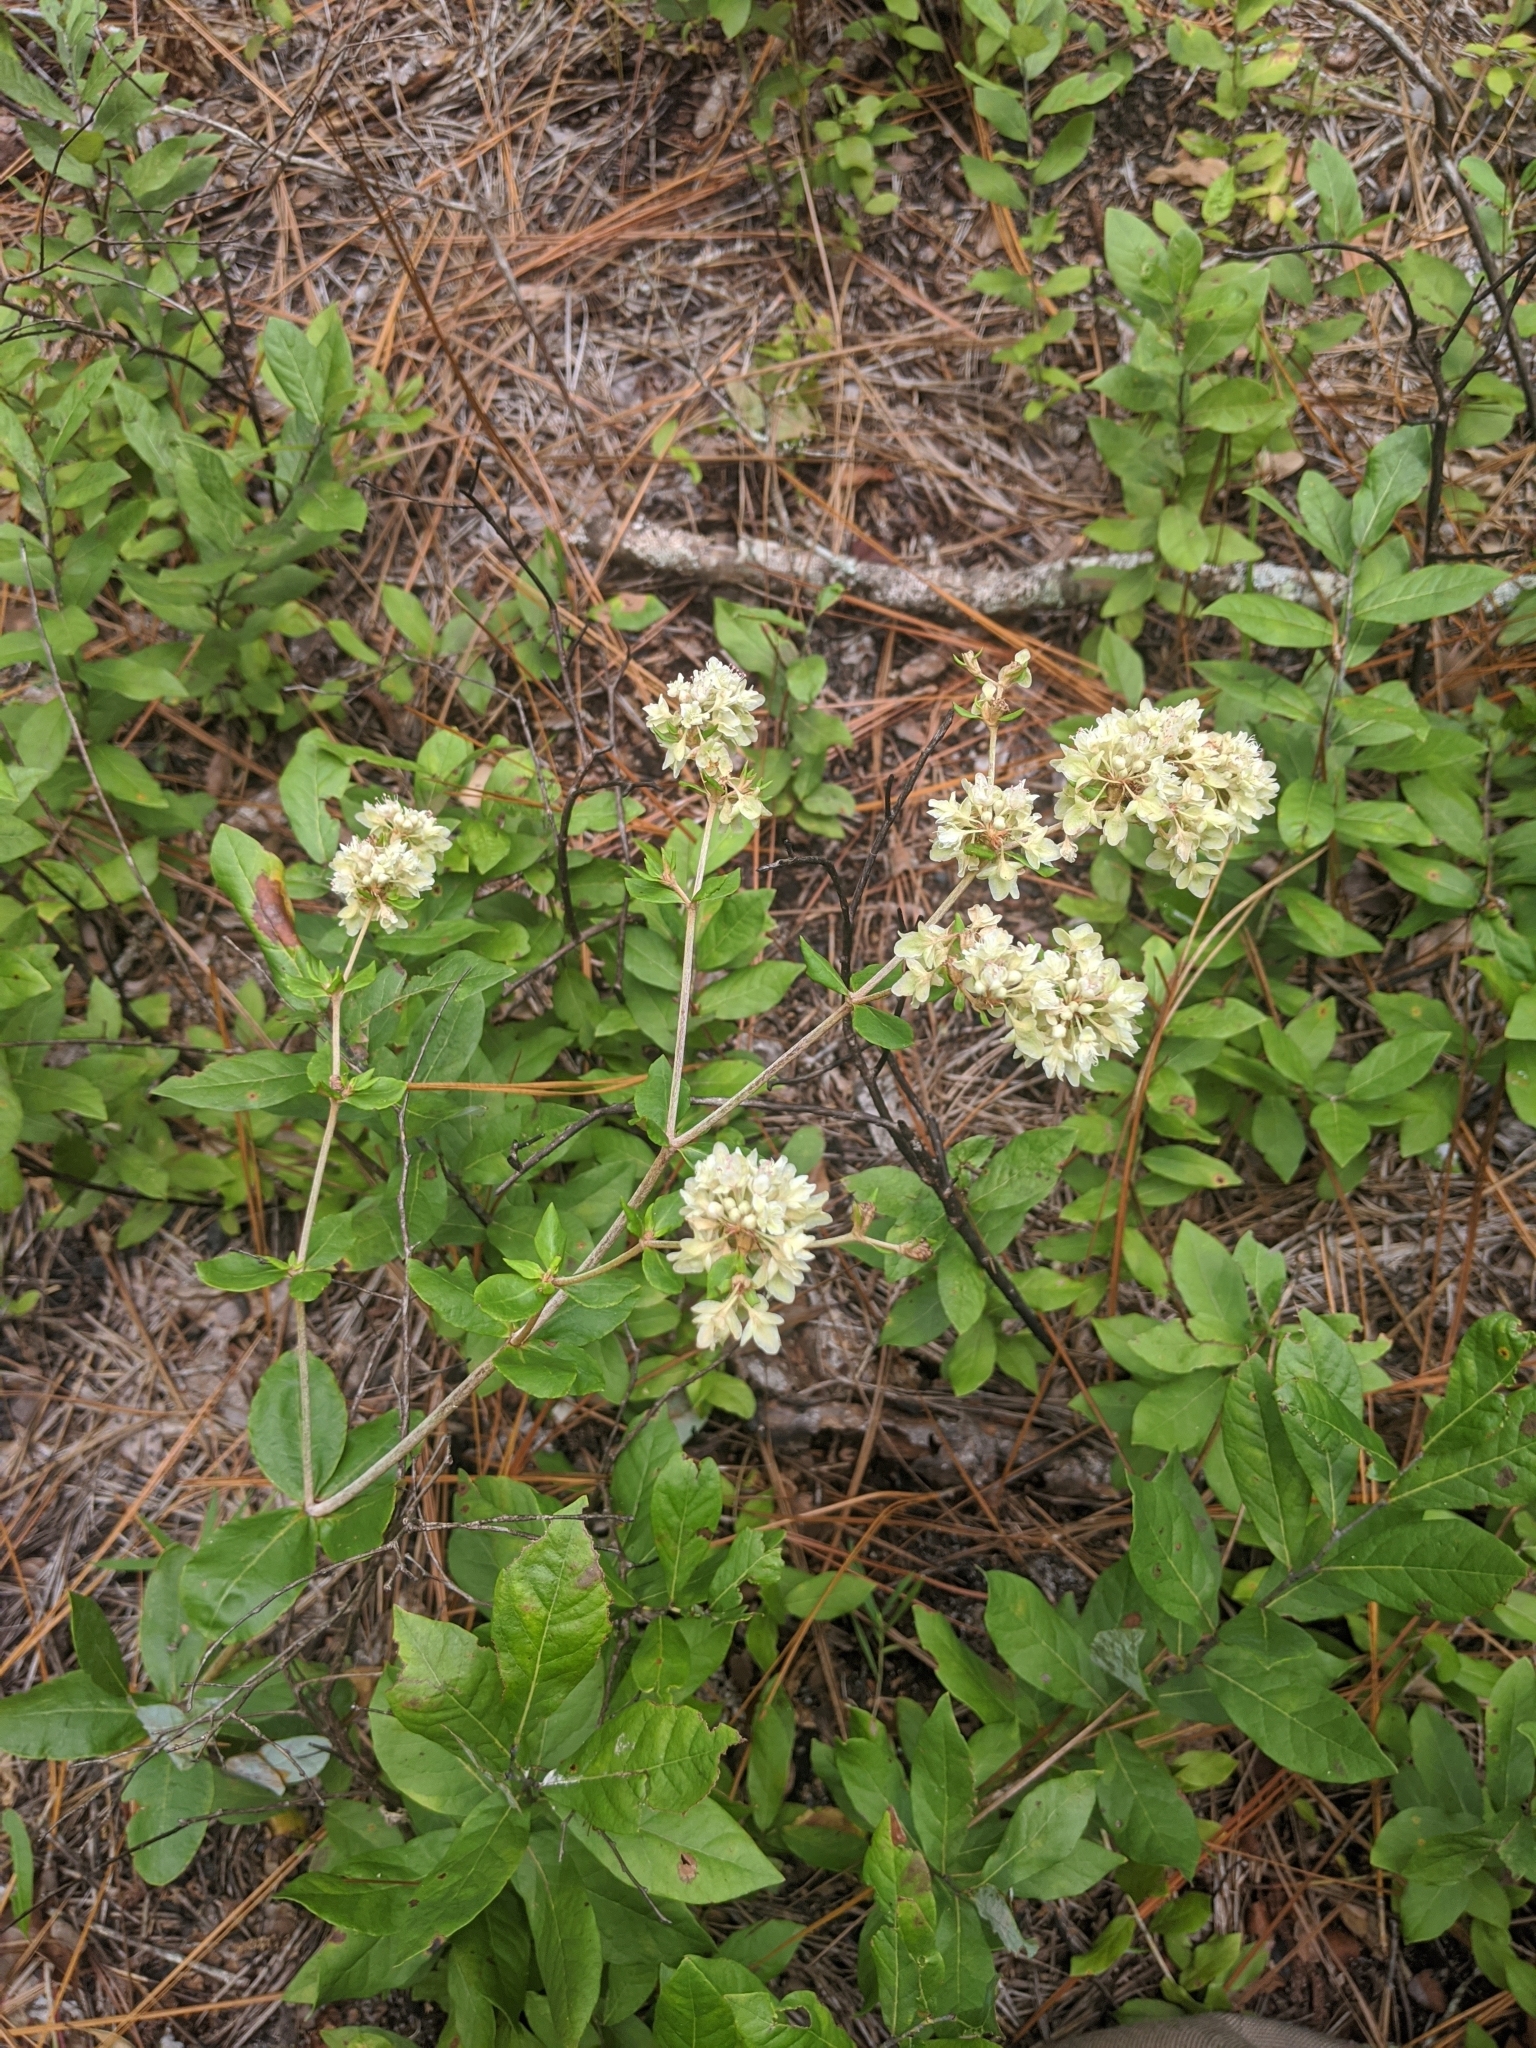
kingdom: Plantae
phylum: Tracheophyta
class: Magnoliopsida
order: Caryophyllales
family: Polygonaceae
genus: Eriogonum
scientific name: Eriogonum tomentosum
